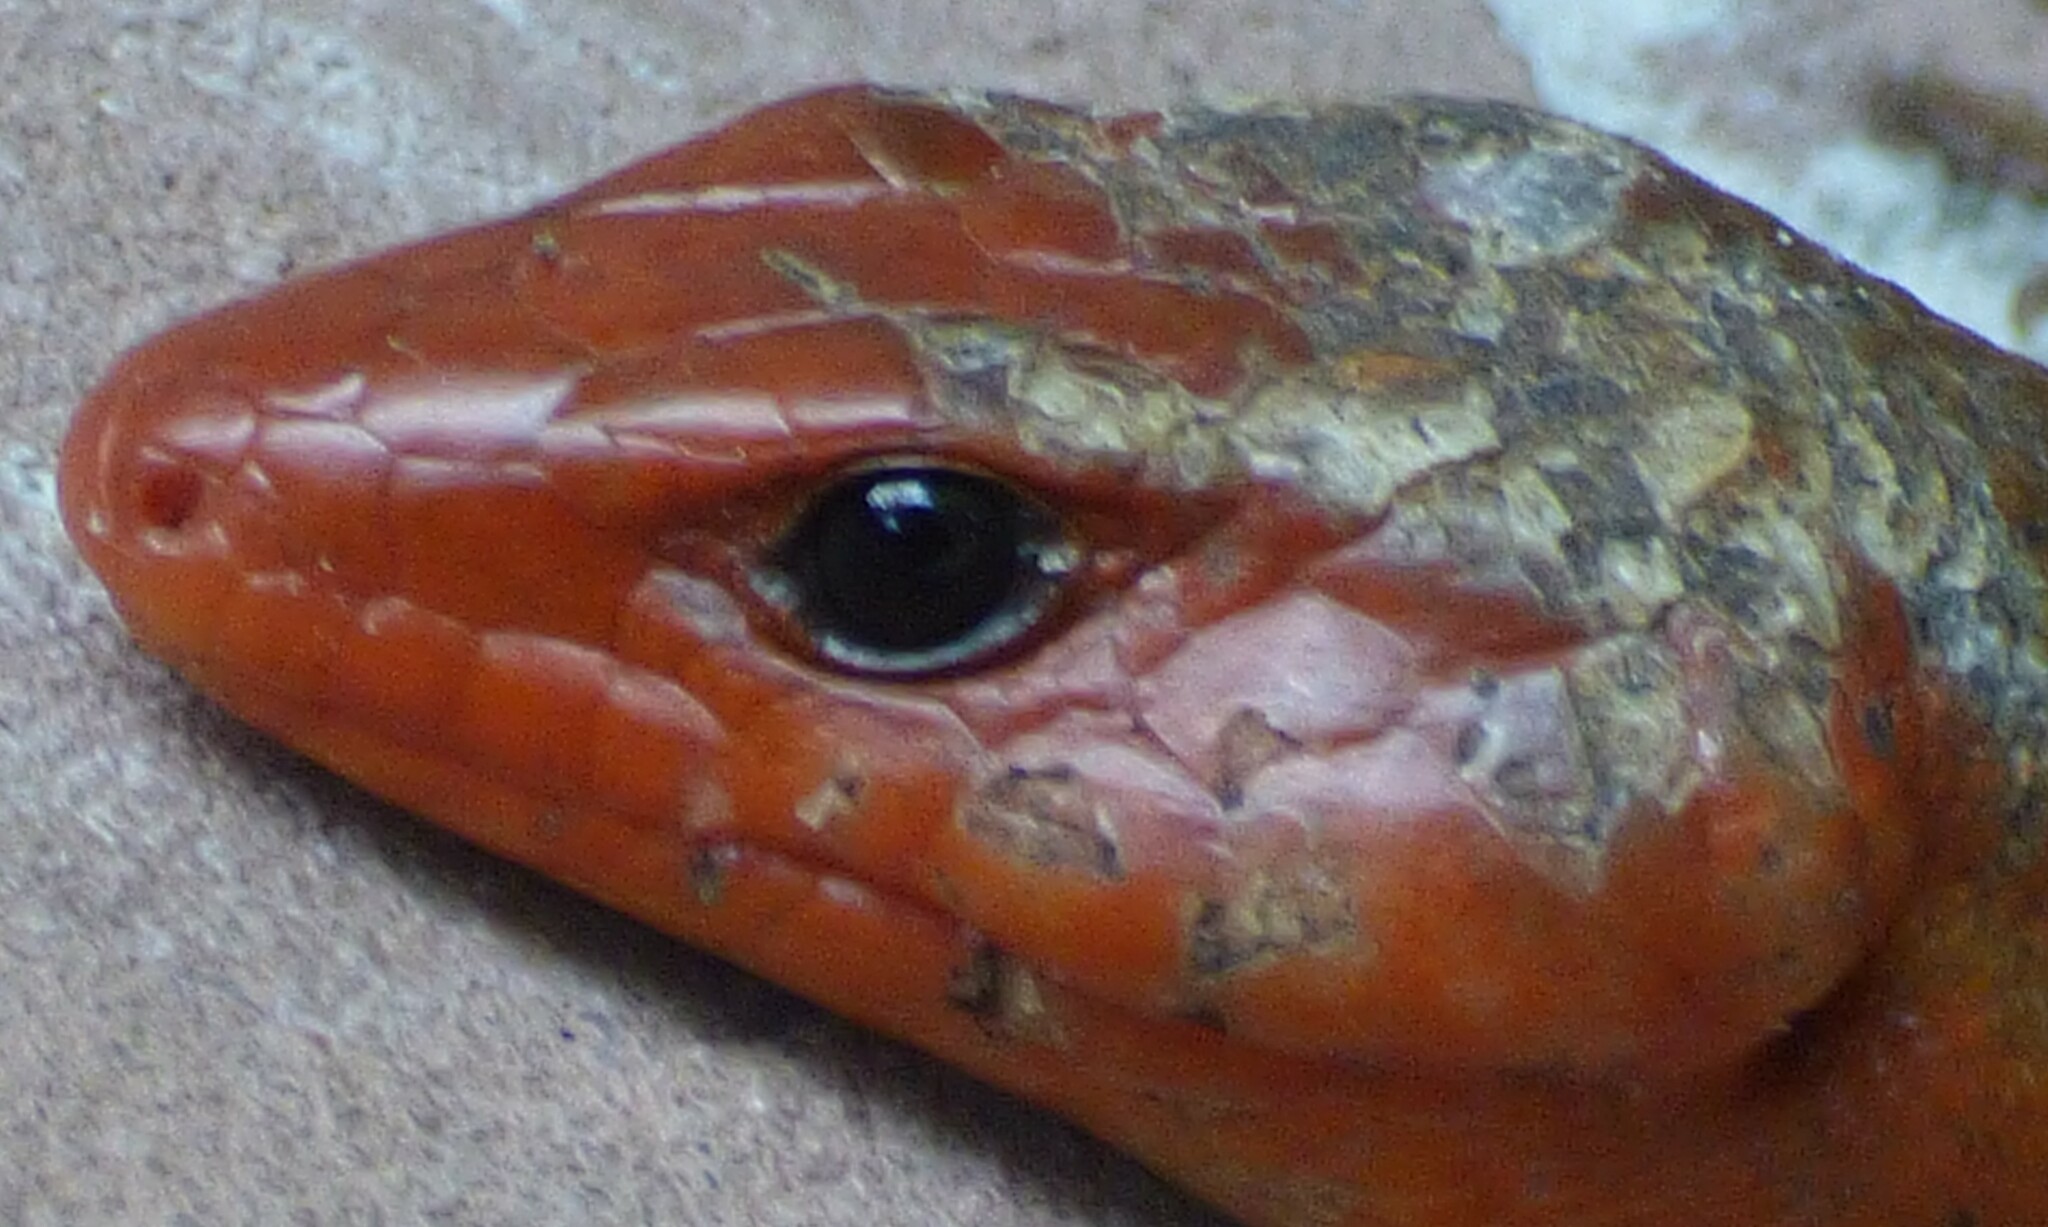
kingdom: Animalia
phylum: Chordata
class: Squamata
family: Scincidae
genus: Plestiodon
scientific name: Plestiodon laticeps
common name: Broadhead skink
